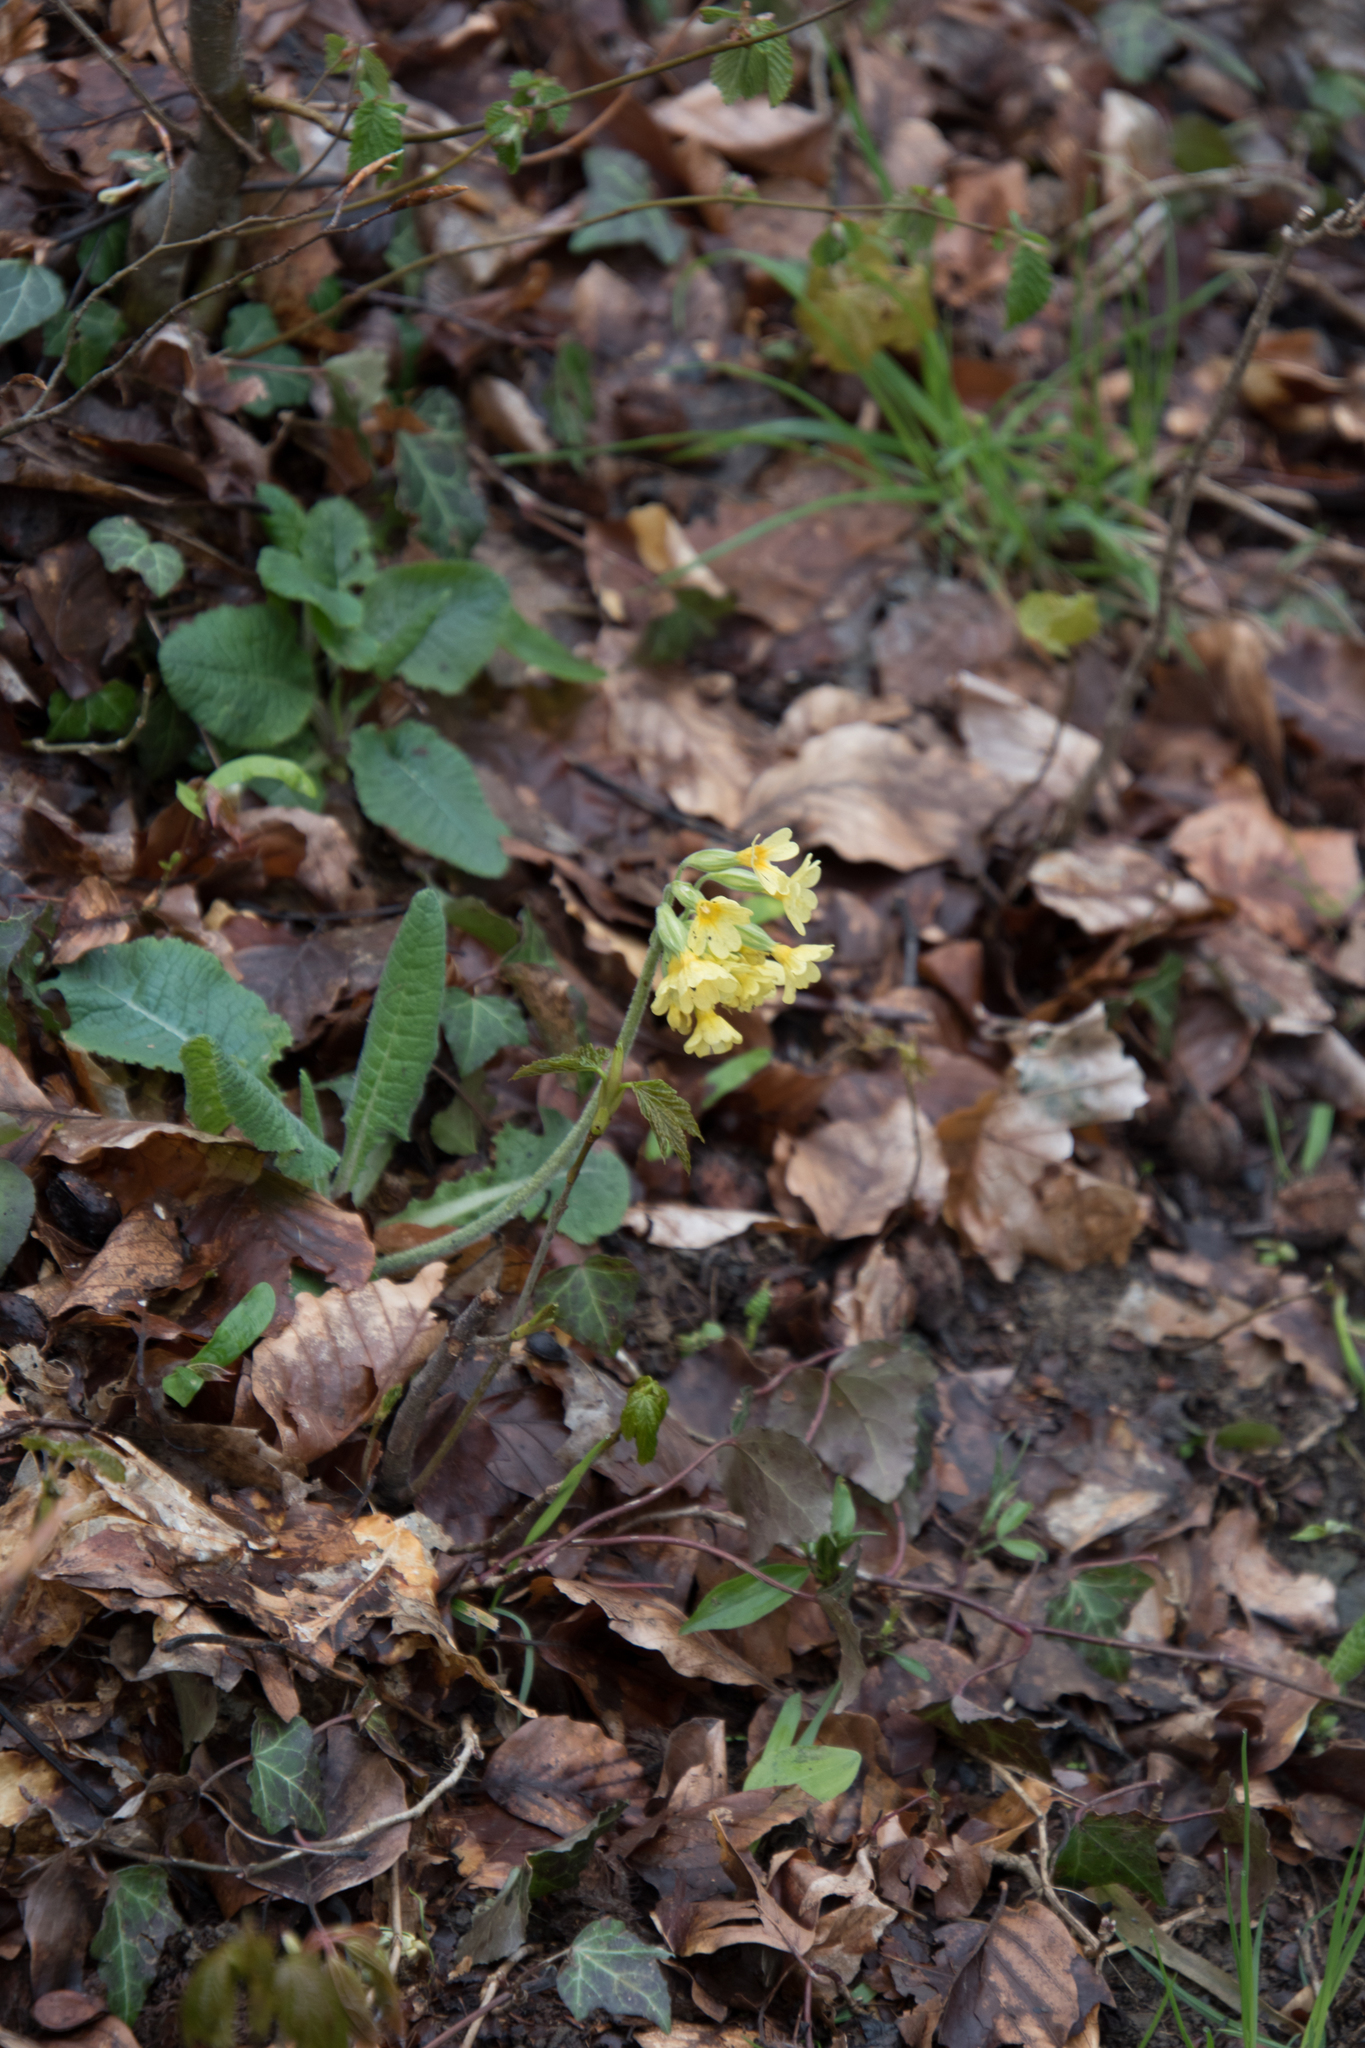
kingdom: Plantae
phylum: Tracheophyta
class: Magnoliopsida
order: Ericales
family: Primulaceae
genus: Primula
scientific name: Primula elatior
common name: Oxlip
